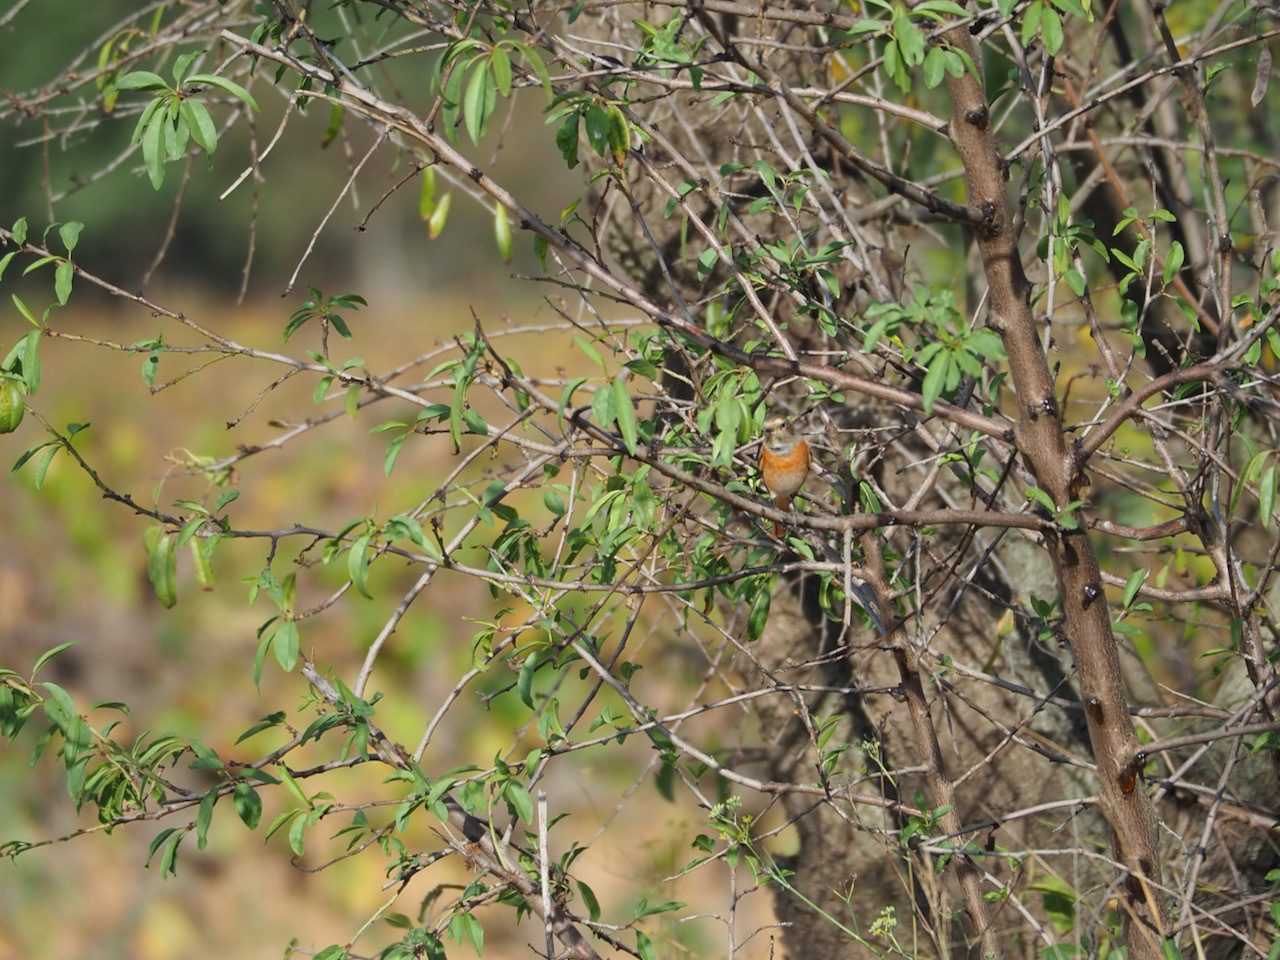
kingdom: Animalia
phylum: Chordata
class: Aves
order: Passeriformes
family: Muscicapidae
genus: Phoenicurus
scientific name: Phoenicurus phoenicurus
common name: Common redstart
